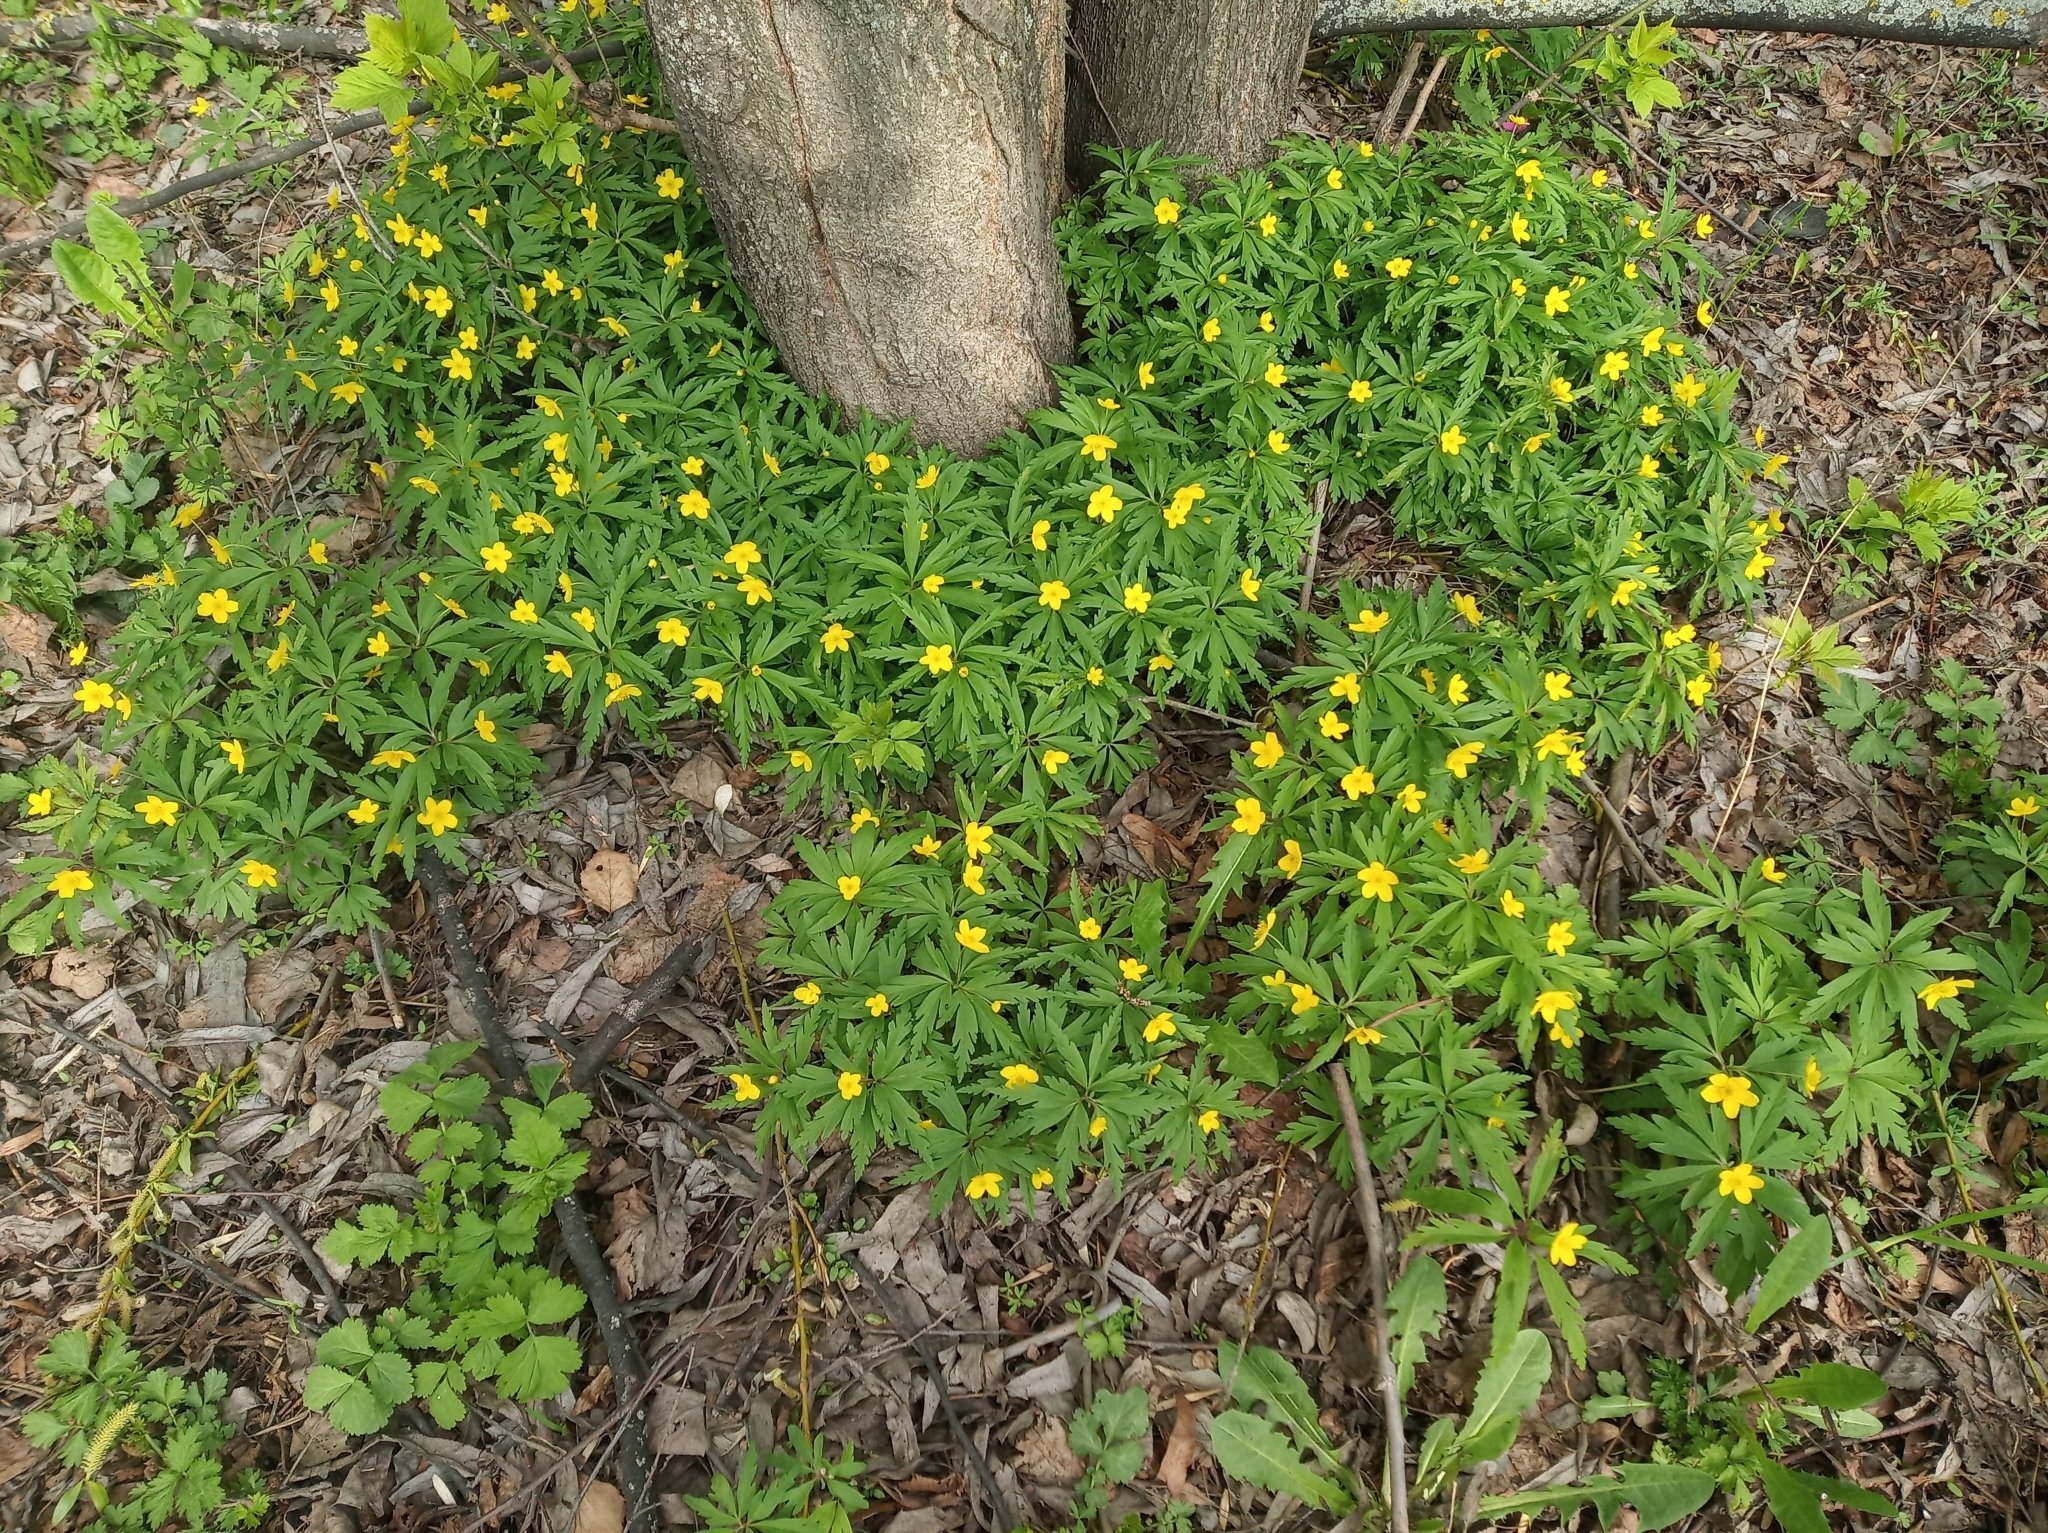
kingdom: Plantae
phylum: Tracheophyta
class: Magnoliopsida
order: Ranunculales
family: Ranunculaceae
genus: Anemone
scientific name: Anemone ranunculoides
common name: Yellow anemone
